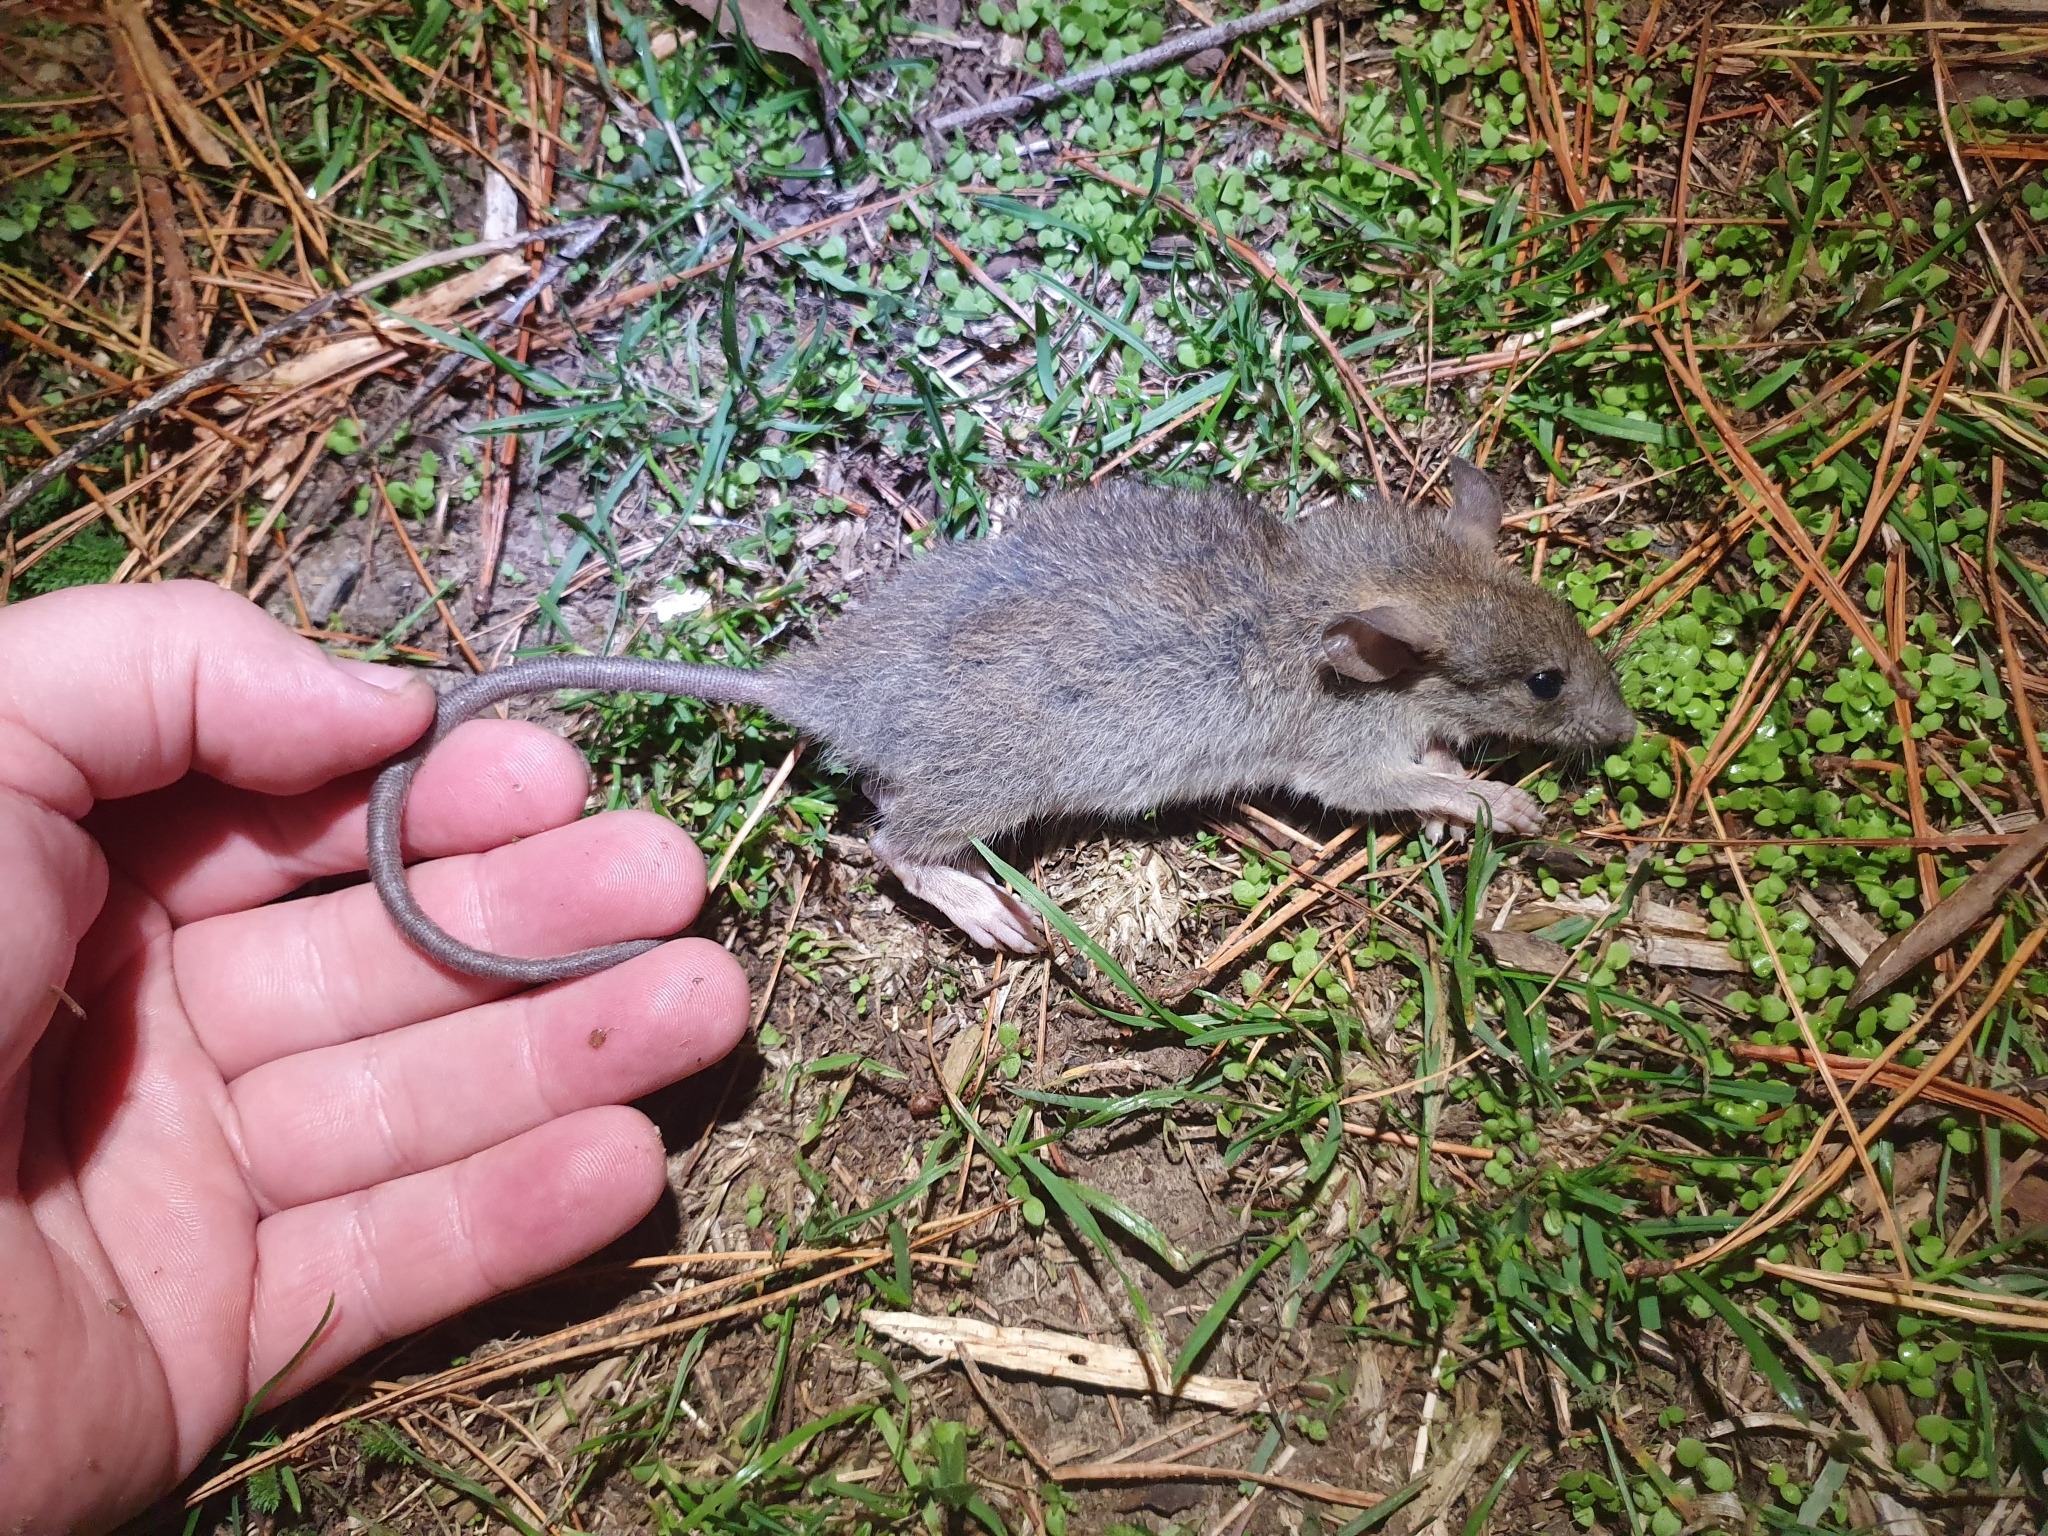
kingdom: Animalia
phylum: Chordata
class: Mammalia
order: Rodentia
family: Muridae
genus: Rattus
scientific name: Rattus rattus
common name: Black rat
